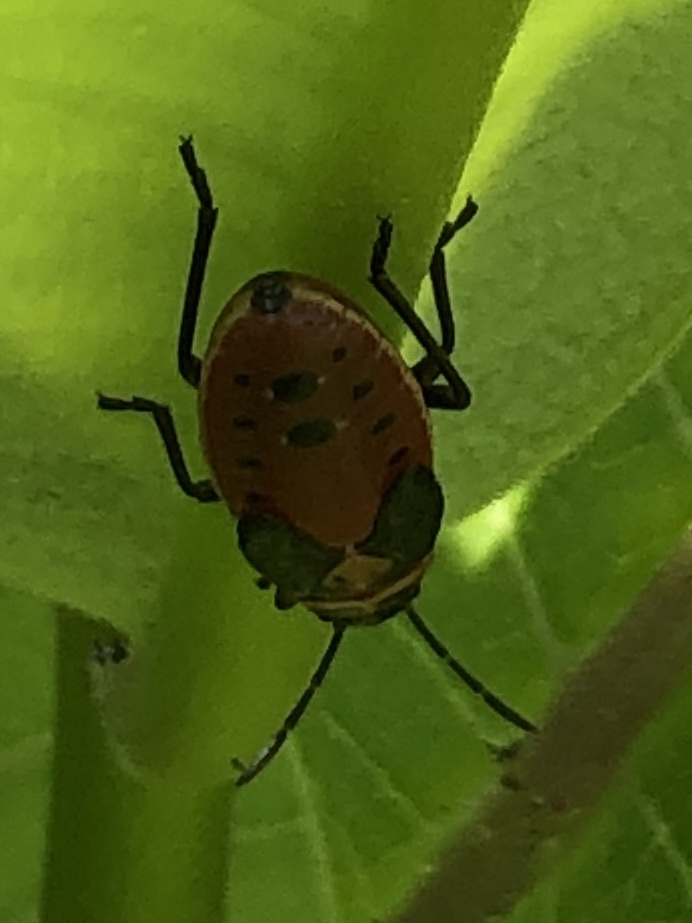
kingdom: Animalia
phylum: Arthropoda
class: Insecta
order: Hemiptera
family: Lygaeidae
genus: Lygaeus
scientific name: Lygaeus kalmii
